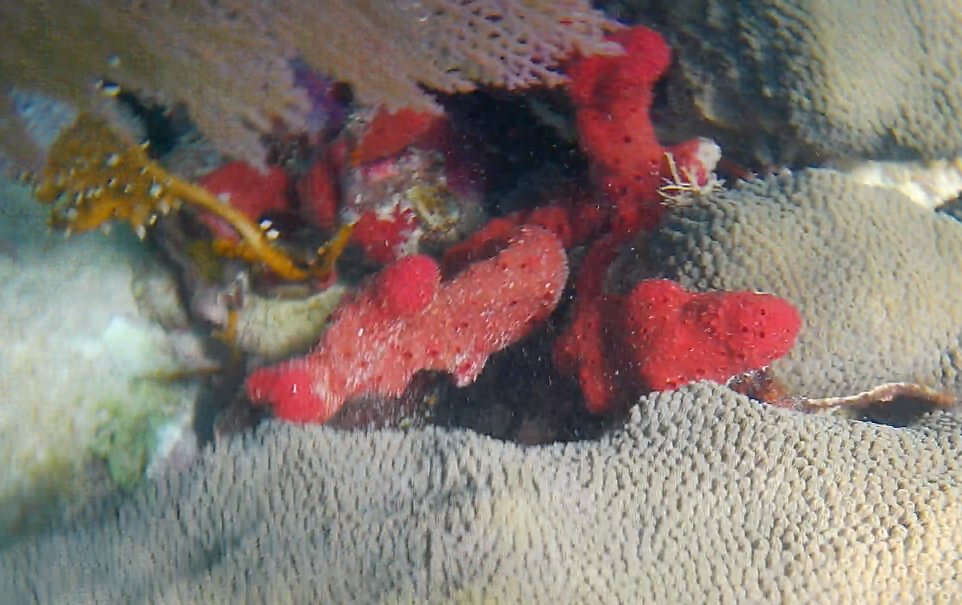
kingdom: Animalia
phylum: Porifera
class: Demospongiae
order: Haplosclerida
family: Niphatidae
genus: Amphimedon
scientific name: Amphimedon compressa
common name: Red sponge
